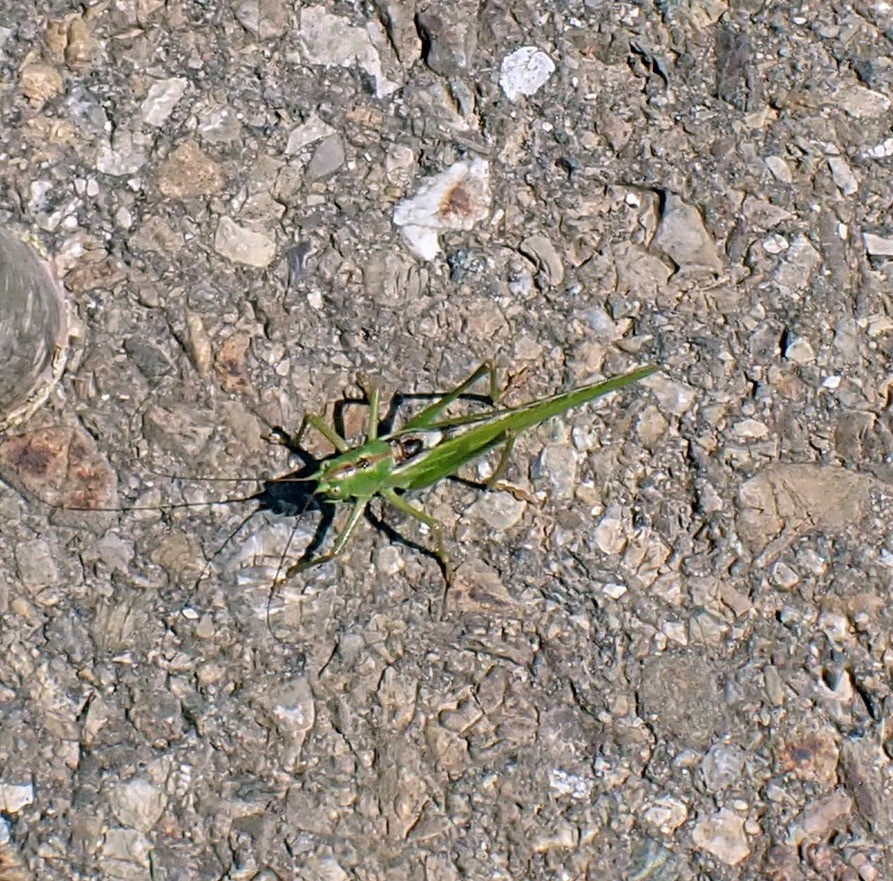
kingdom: Animalia
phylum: Arthropoda
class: Insecta
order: Orthoptera
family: Tettigoniidae
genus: Tettigonia
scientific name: Tettigonia viridissima
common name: Great green bush-cricket
